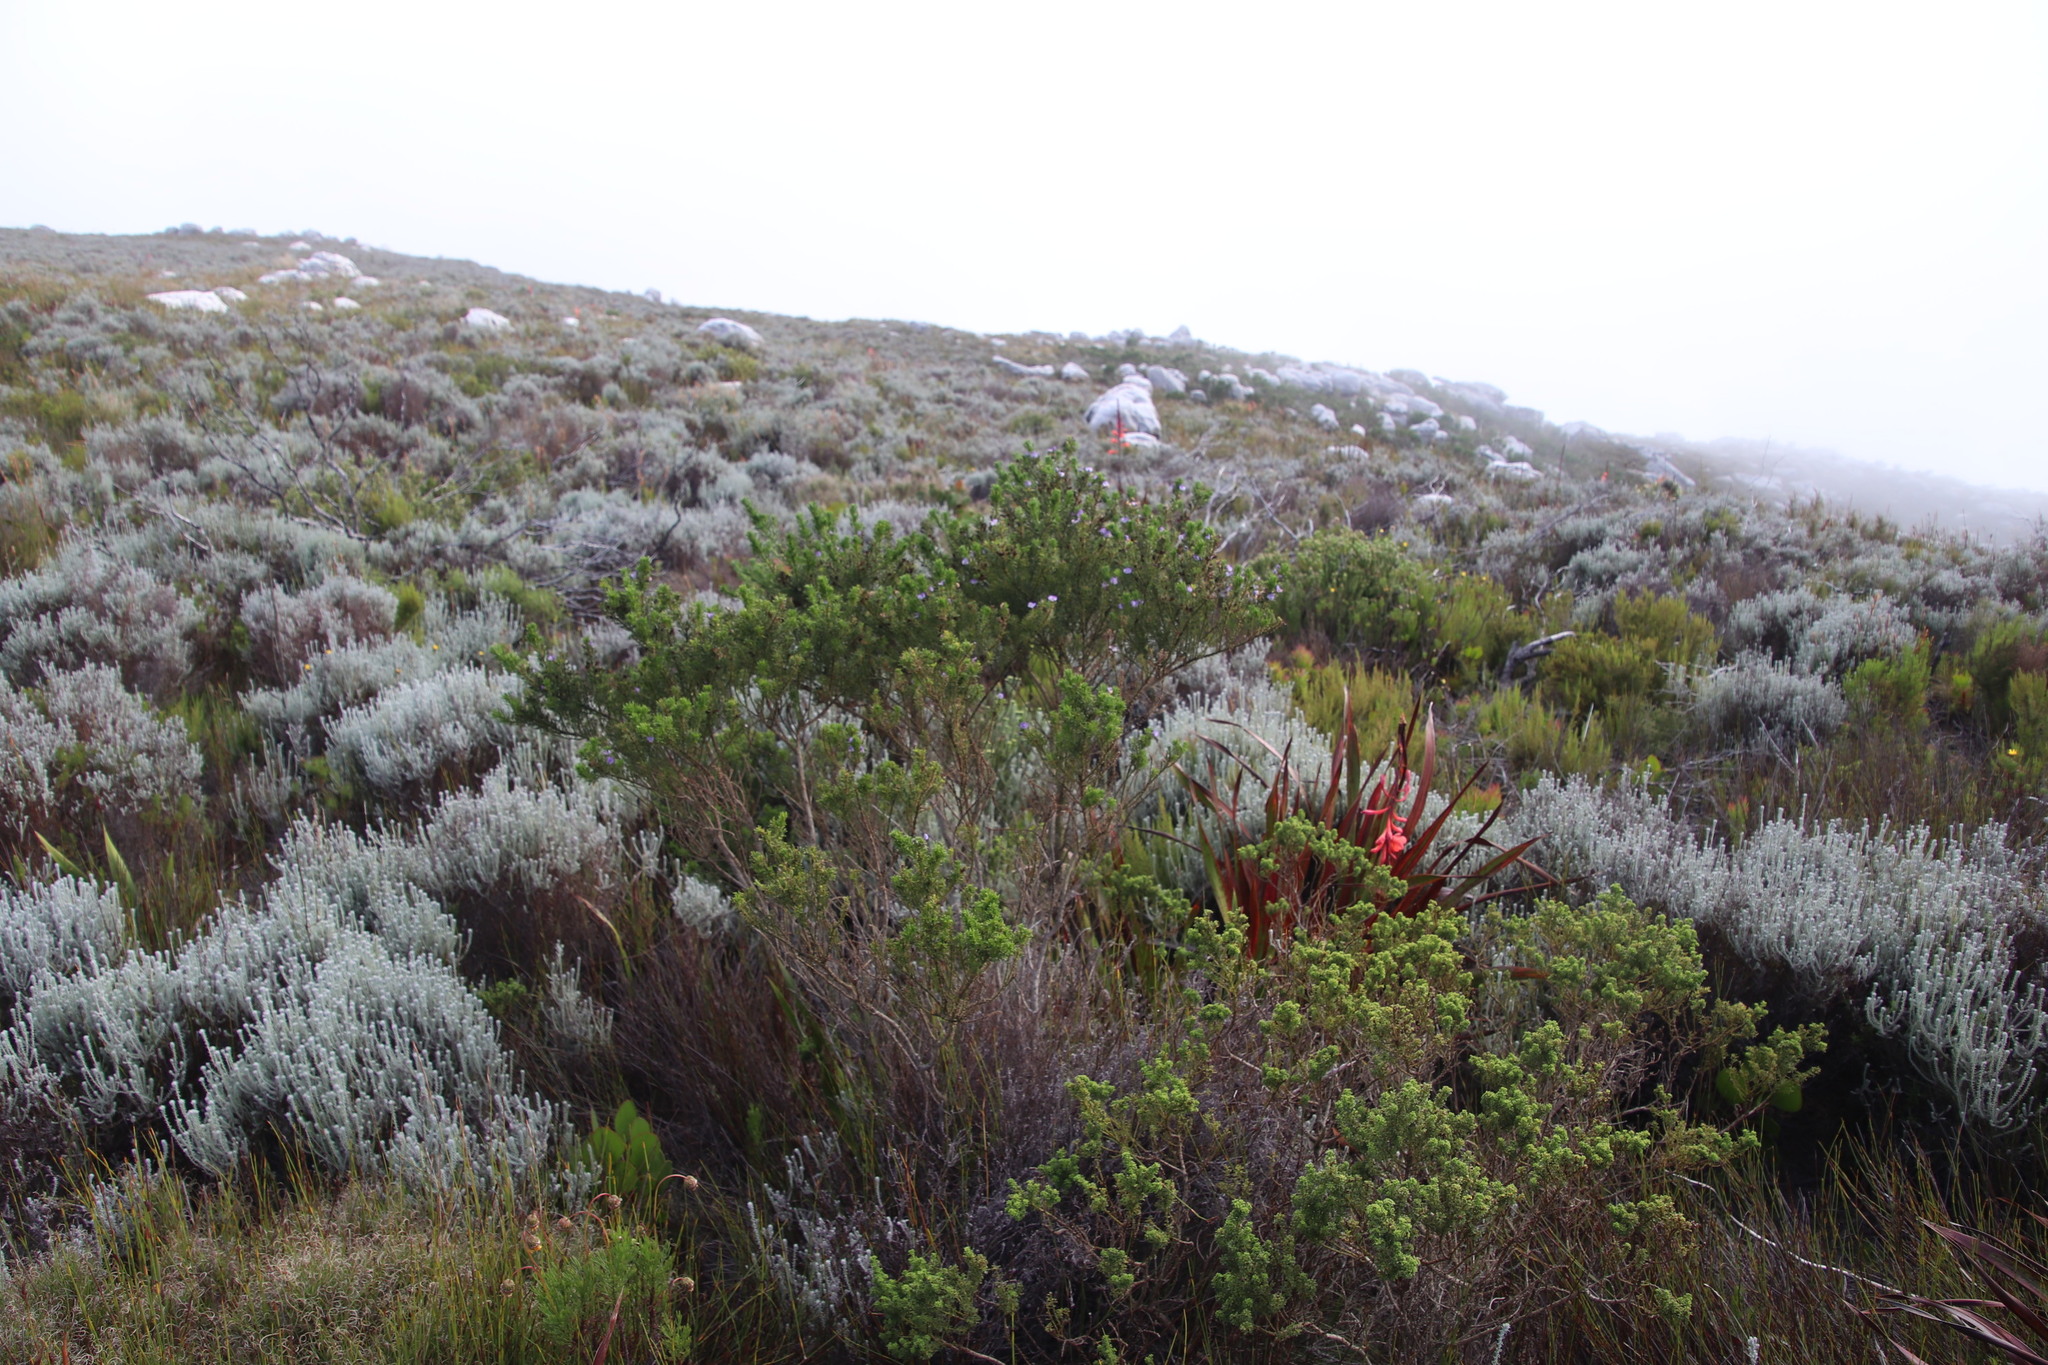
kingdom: Plantae
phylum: Tracheophyta
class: Magnoliopsida
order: Fabales
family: Fabaceae
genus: Psoralea
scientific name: Psoralea aculeata
